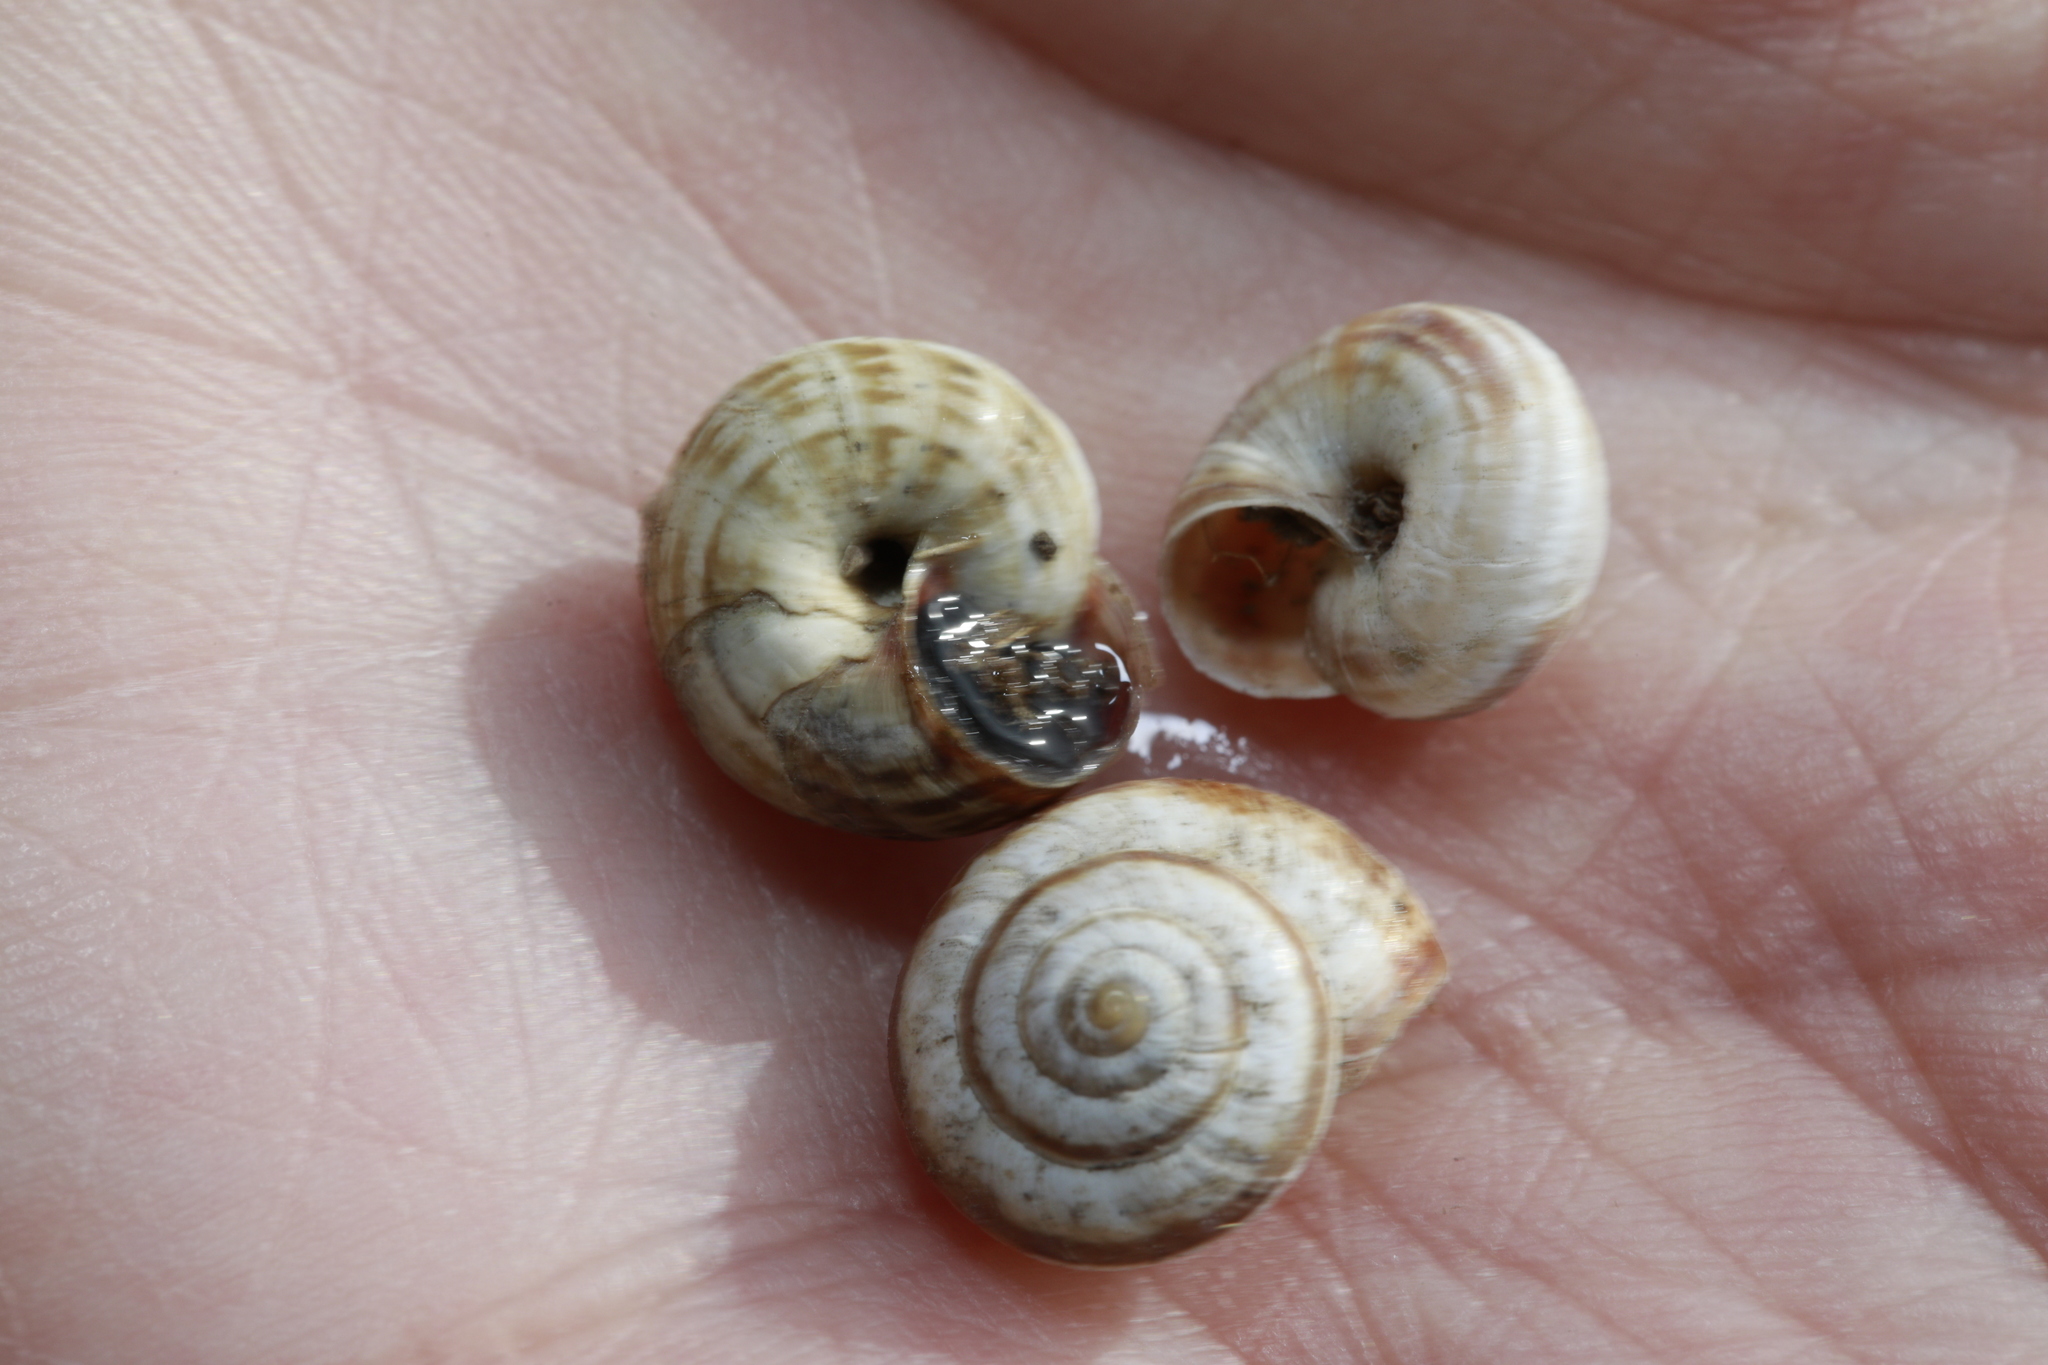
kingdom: Animalia
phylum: Mollusca
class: Gastropoda
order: Stylommatophora
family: Geomitridae
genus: Cernuella
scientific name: Cernuella virgata
